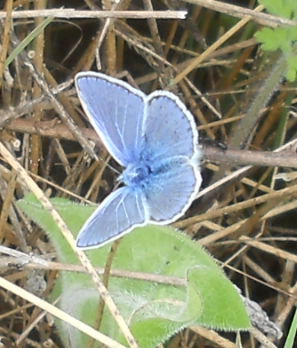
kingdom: Animalia
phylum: Arthropoda
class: Insecta
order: Lepidoptera
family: Lycaenidae
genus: Polyommatus
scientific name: Polyommatus icarus
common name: Common blue
